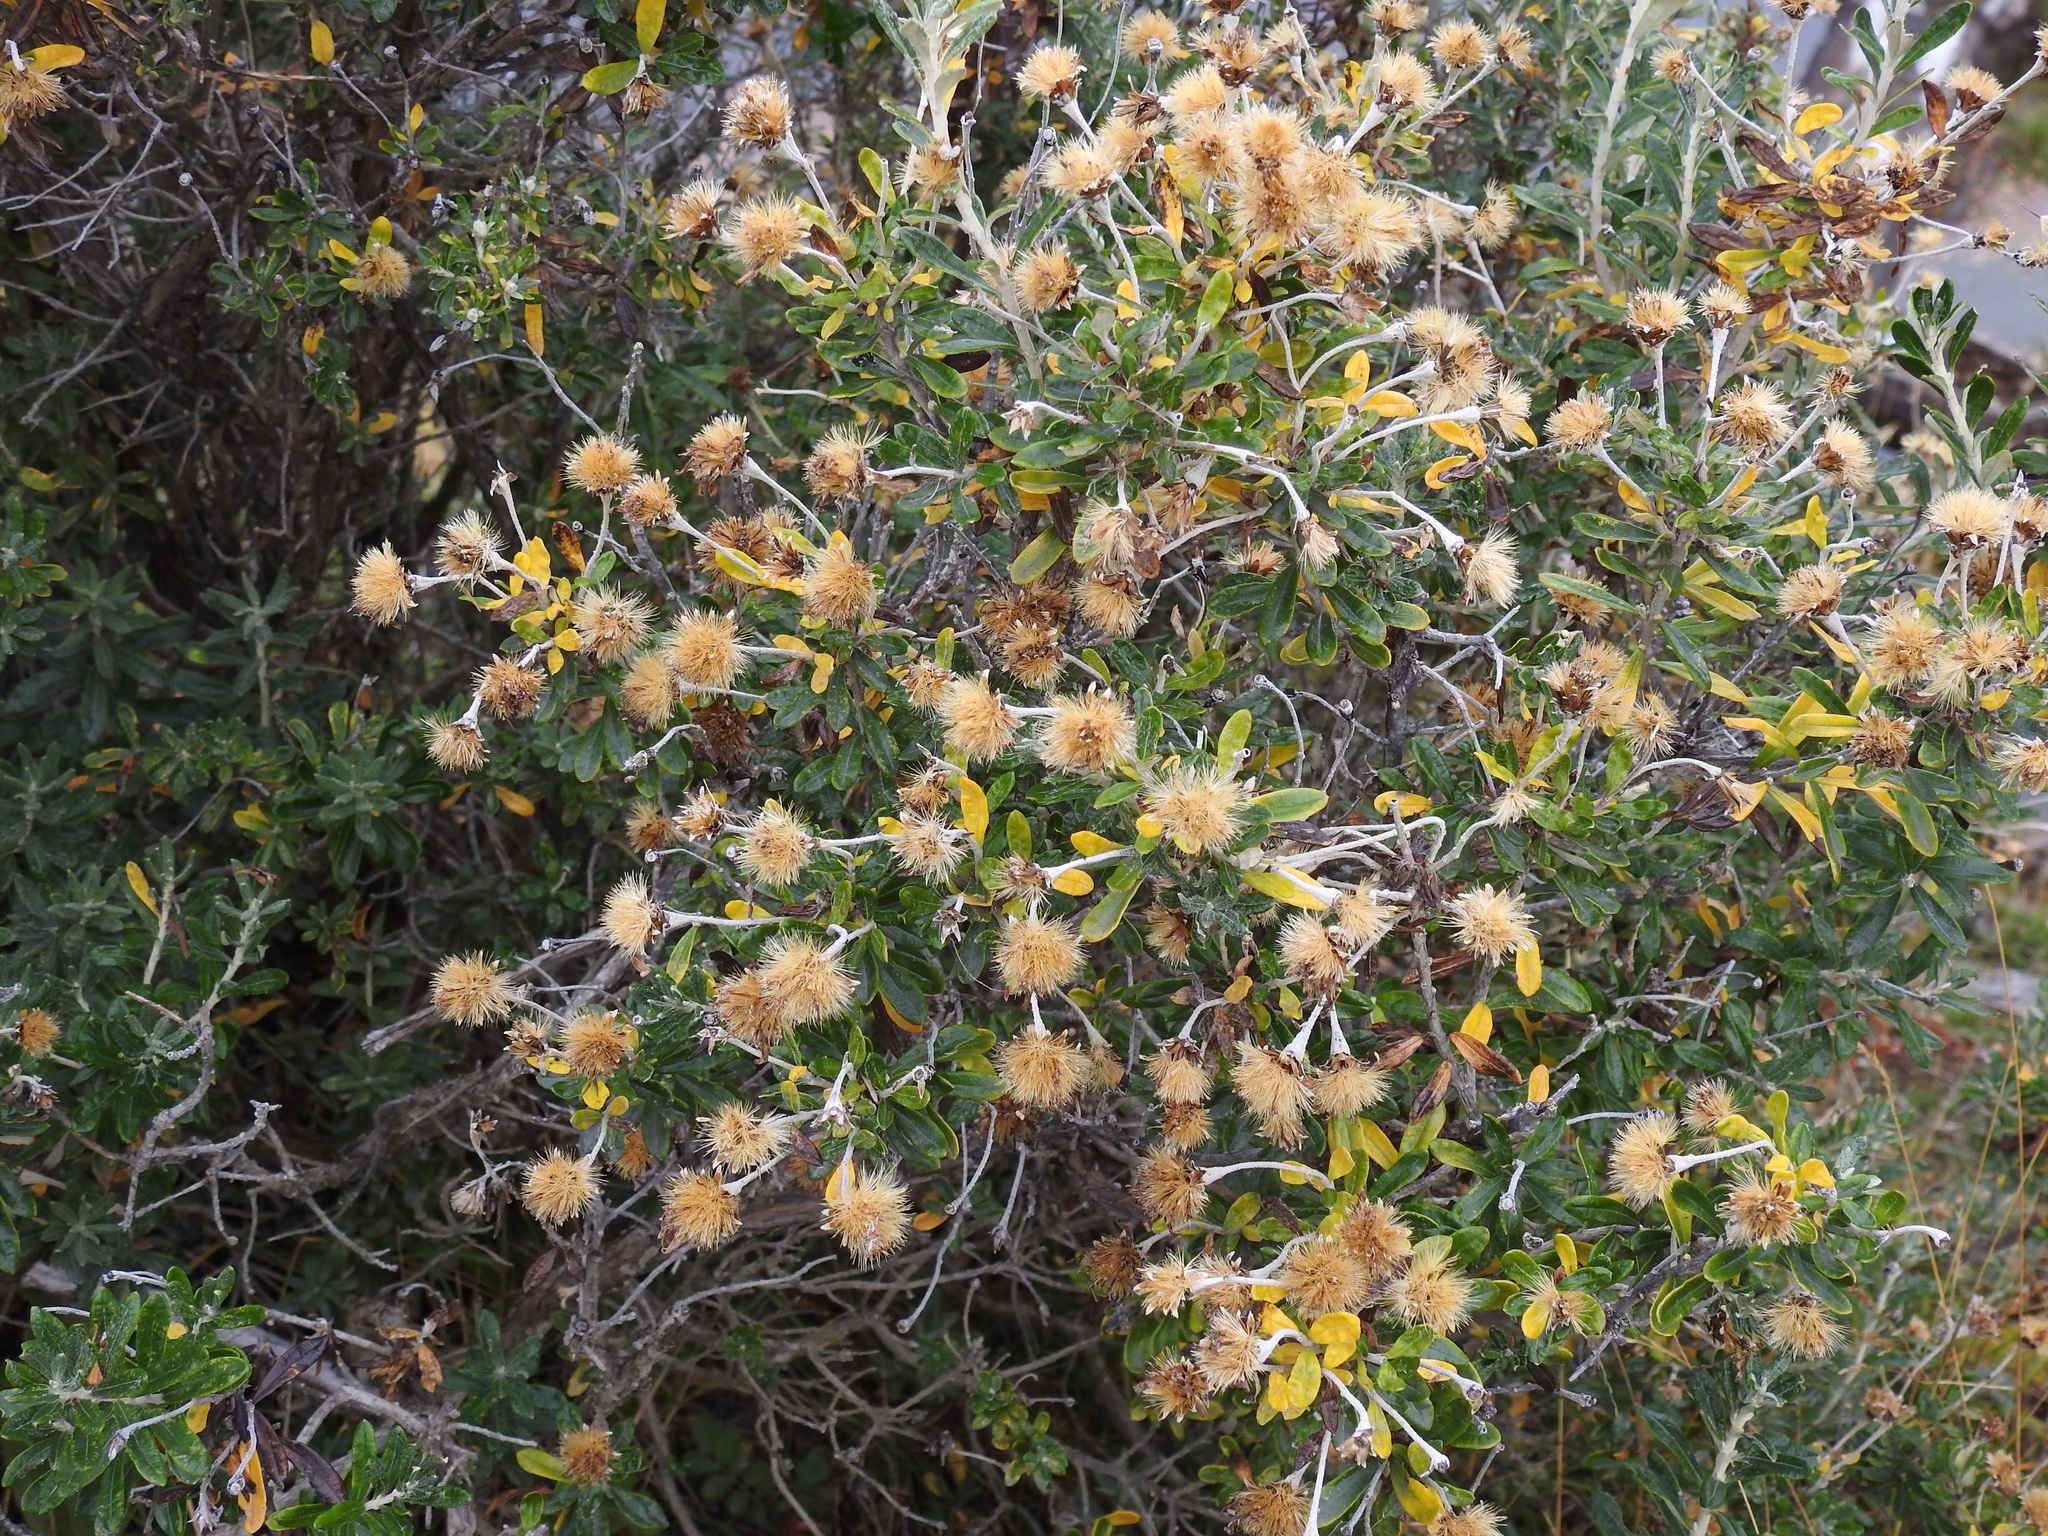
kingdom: Plantae
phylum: Tracheophyta
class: Magnoliopsida
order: Asterales
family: Asteraceae
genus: Chiliotrichum
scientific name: Chiliotrichum diffusum
